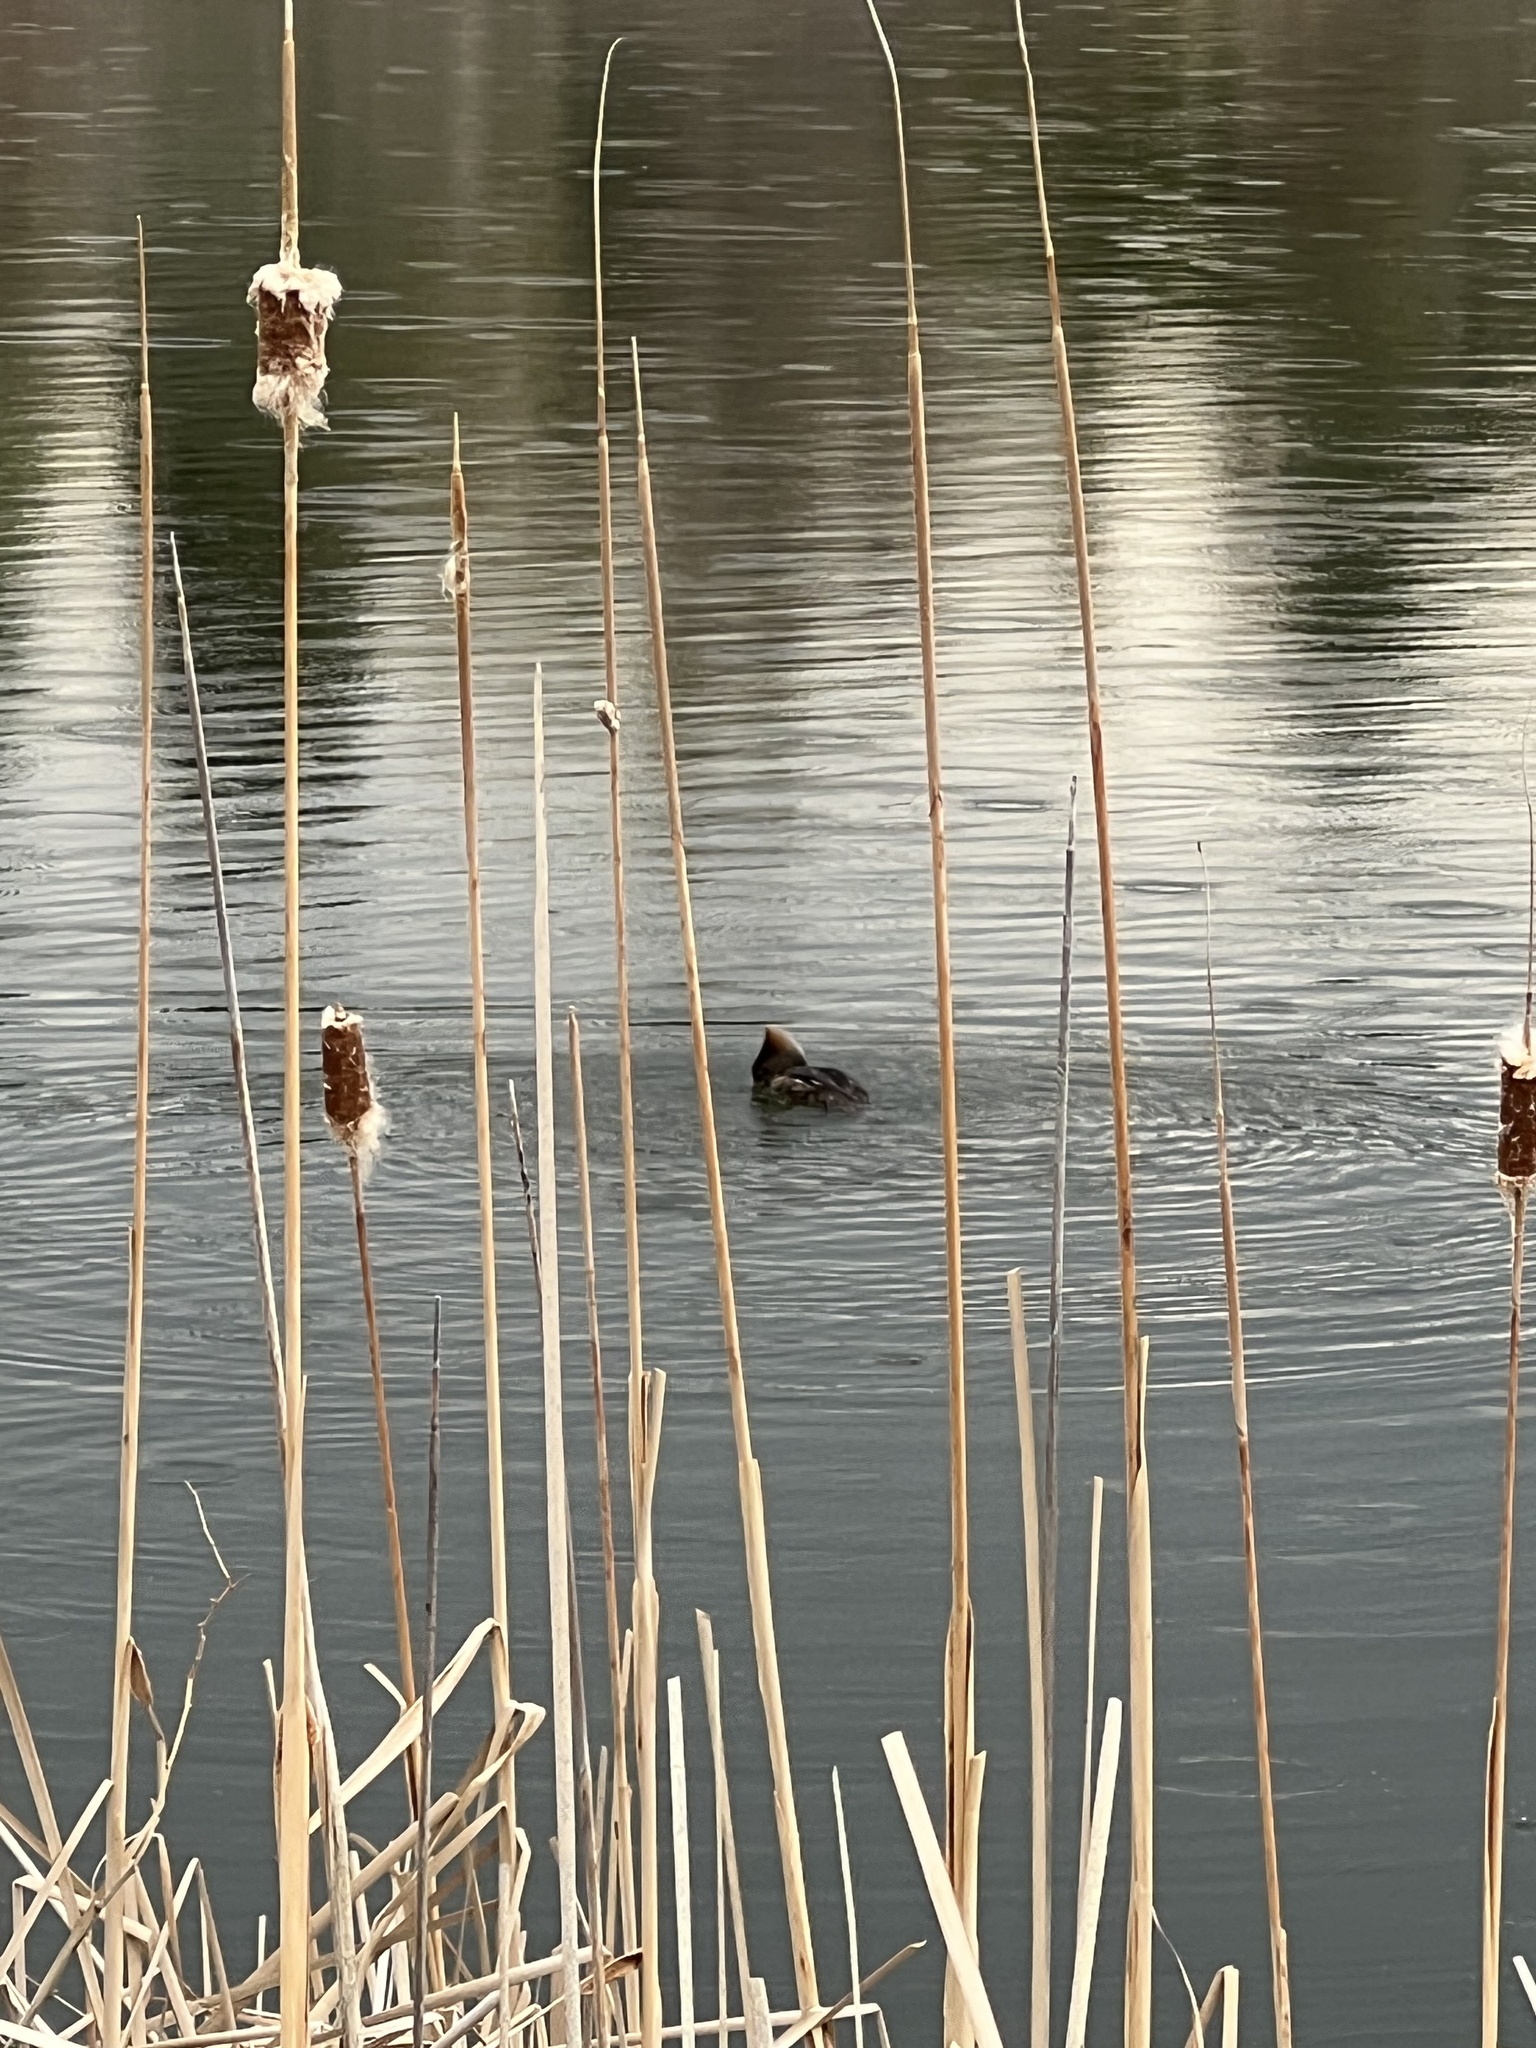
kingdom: Animalia
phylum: Chordata
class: Aves
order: Anseriformes
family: Anatidae
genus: Lophodytes
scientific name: Lophodytes cucullatus
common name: Hooded merganser
